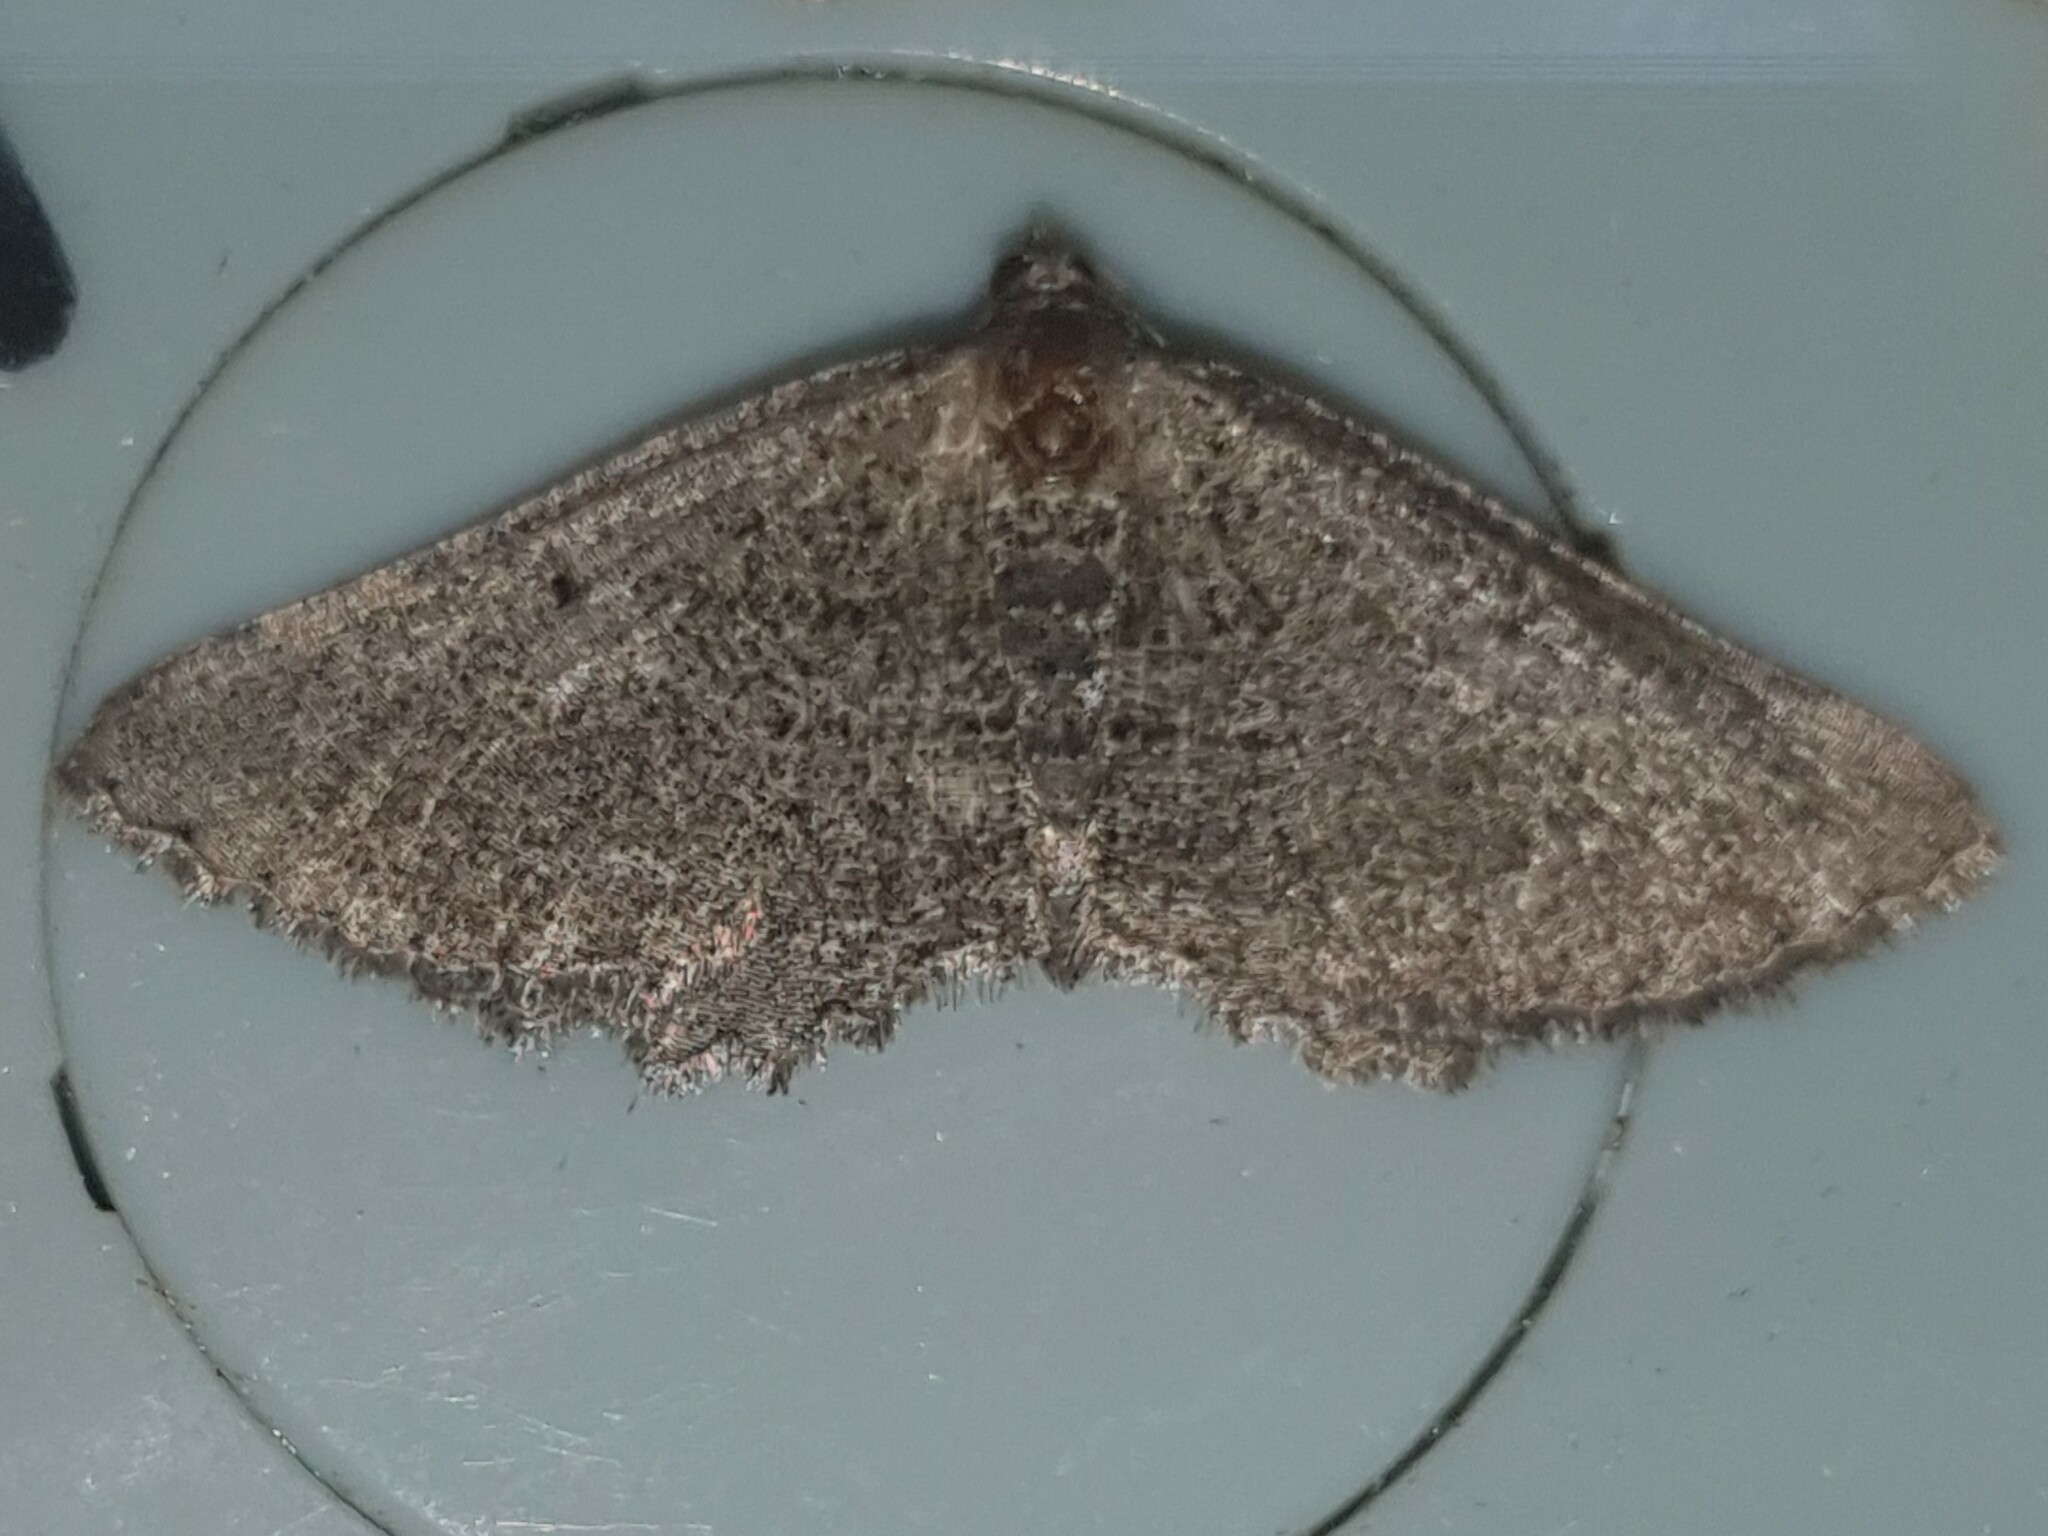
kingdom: Animalia
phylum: Arthropoda
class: Insecta
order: Lepidoptera
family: Geometridae
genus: Rhoptria
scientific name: Rhoptria asperaria
